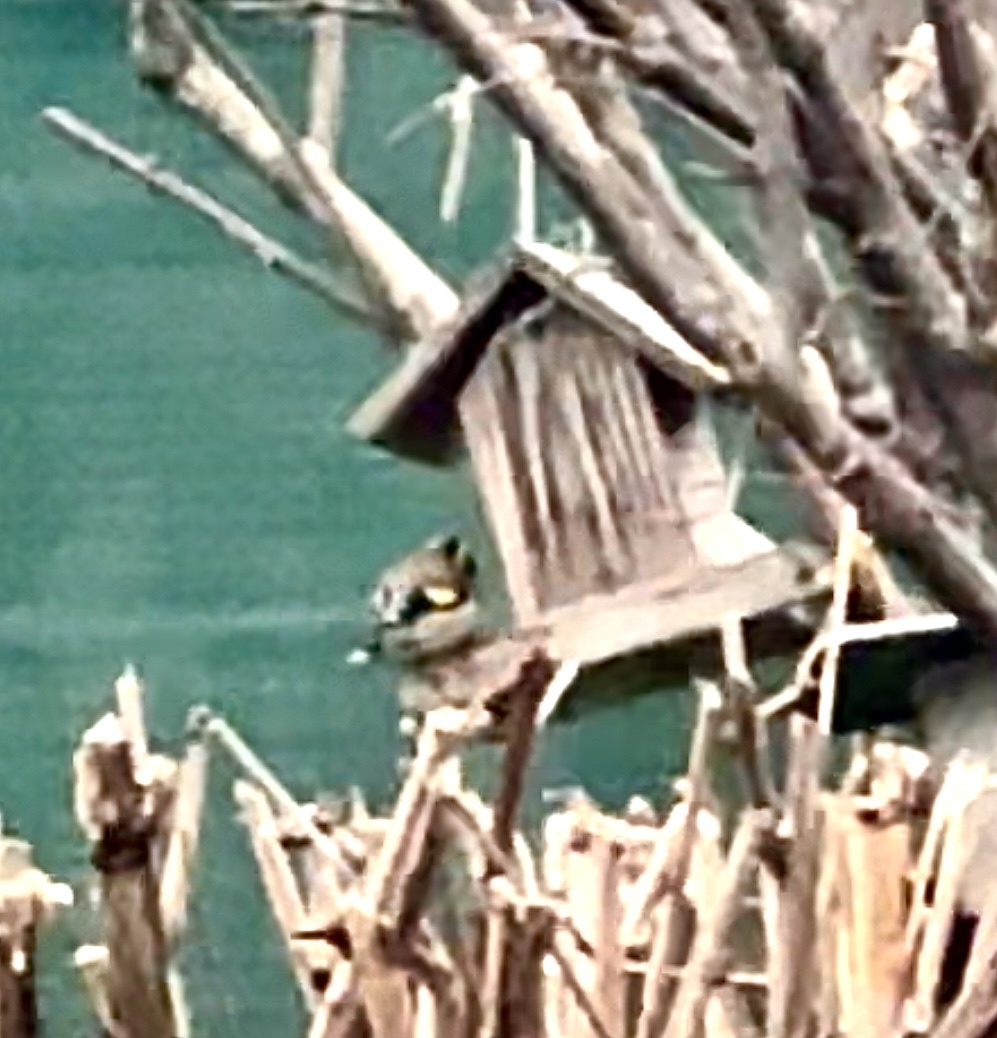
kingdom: Animalia
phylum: Chordata
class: Aves
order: Passeriformes
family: Fringillidae
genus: Carduelis
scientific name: Carduelis carduelis
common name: European goldfinch
